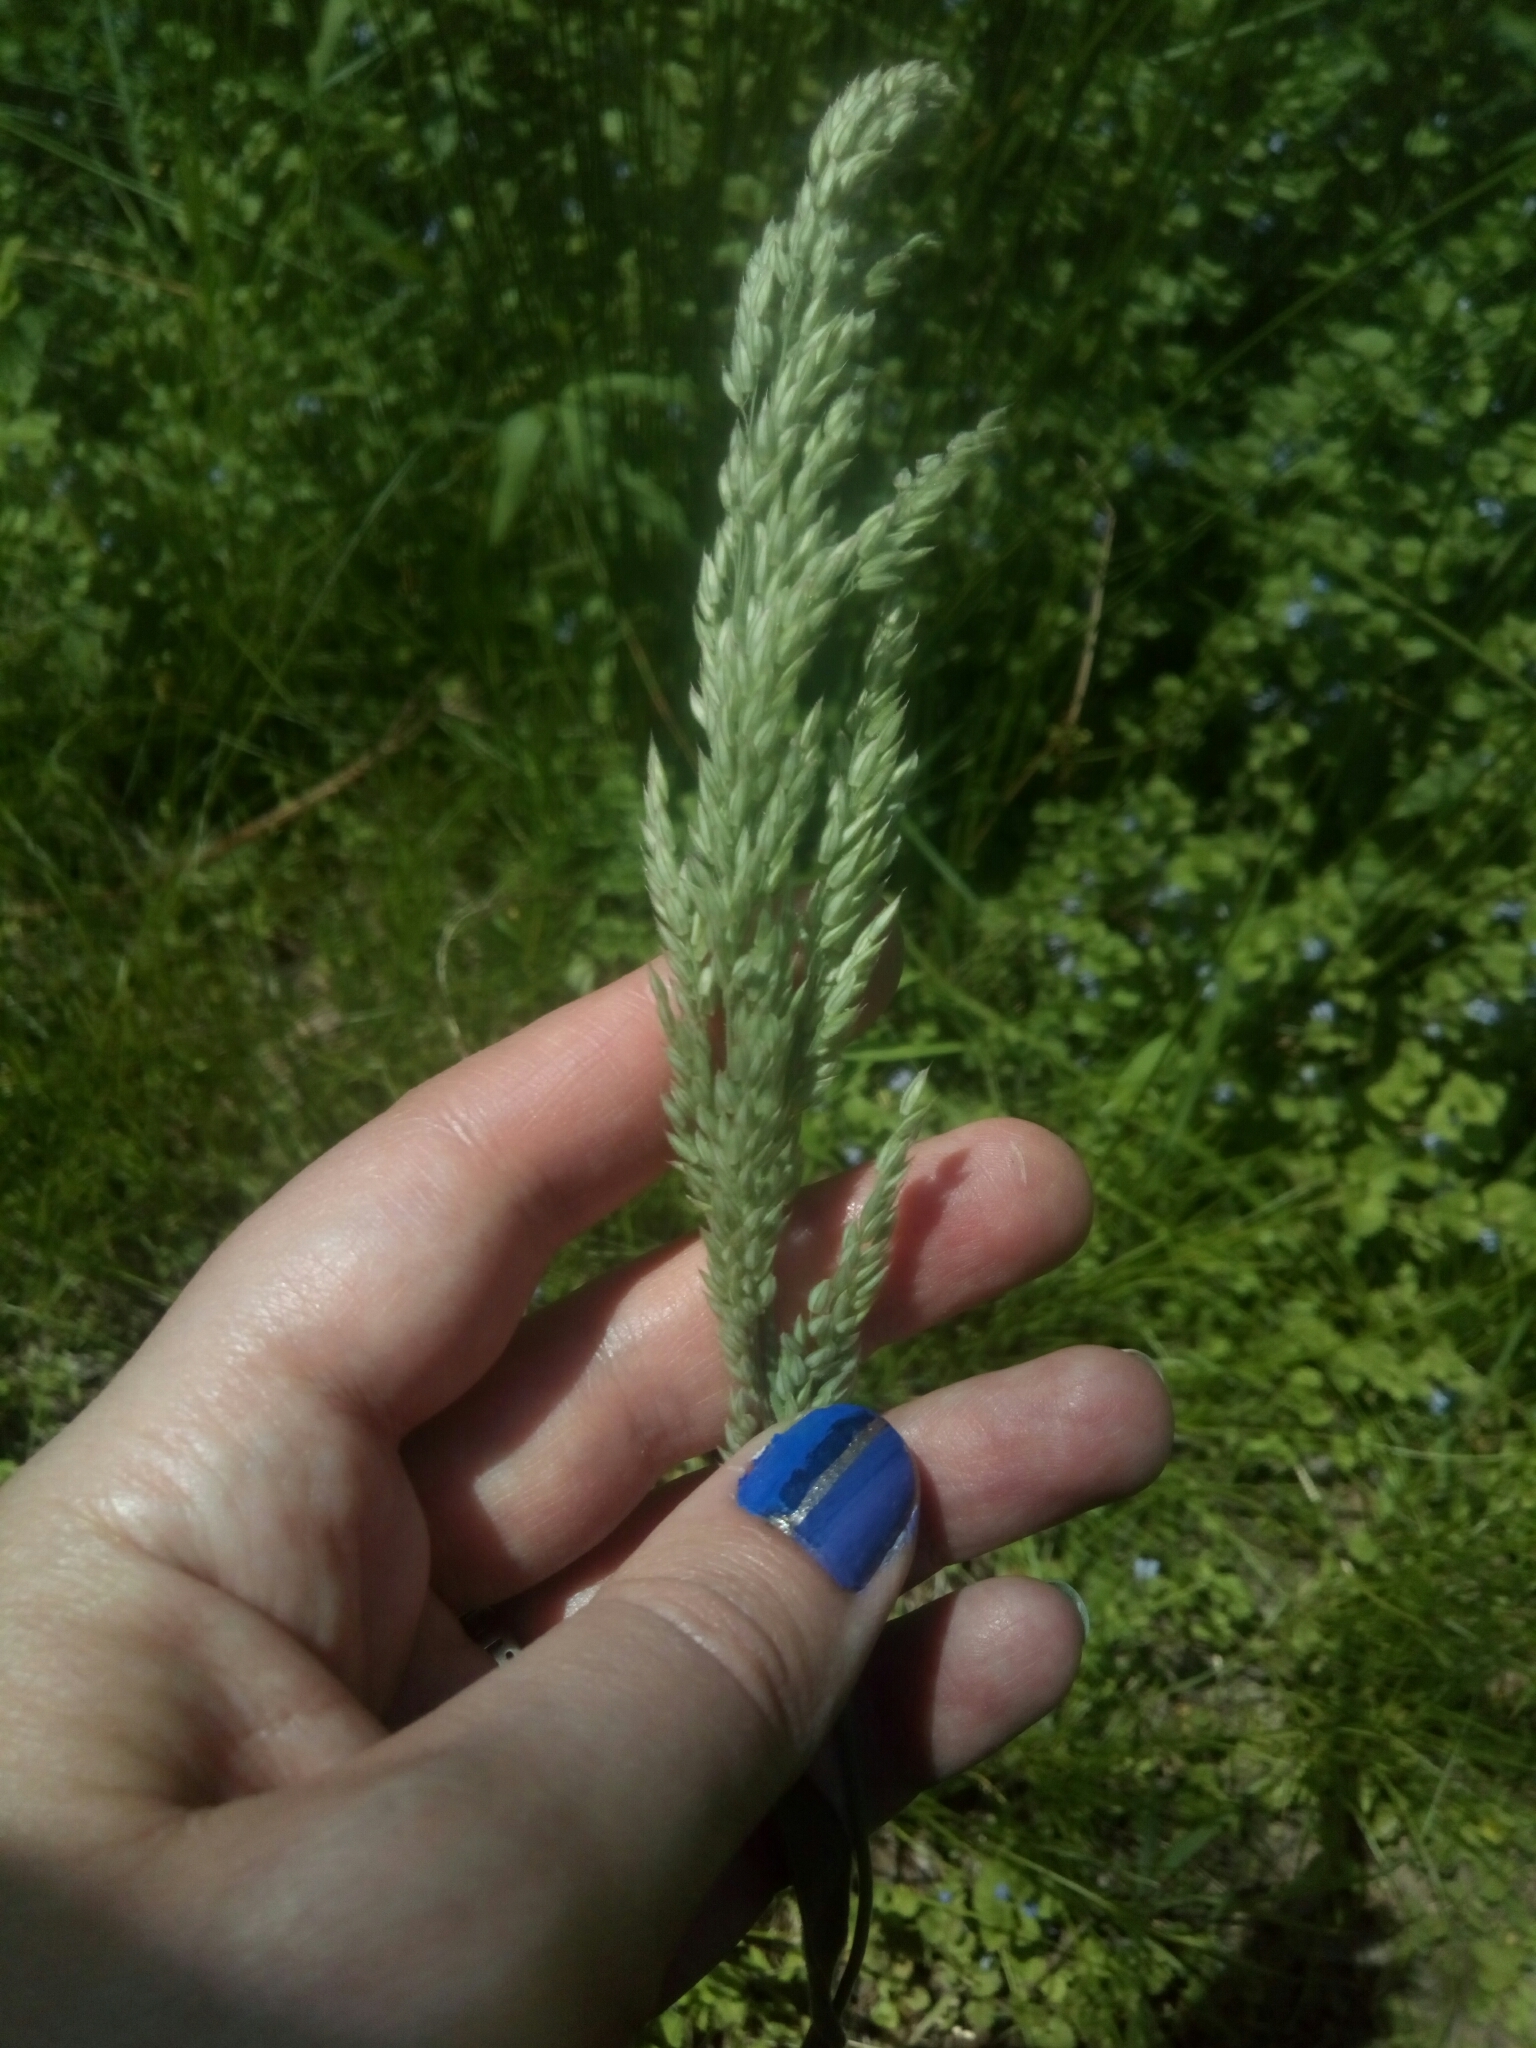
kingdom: Plantae
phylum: Tracheophyta
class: Liliopsida
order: Poales
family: Poaceae
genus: Holcus
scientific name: Holcus lanatus
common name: Yorkshire-fog
